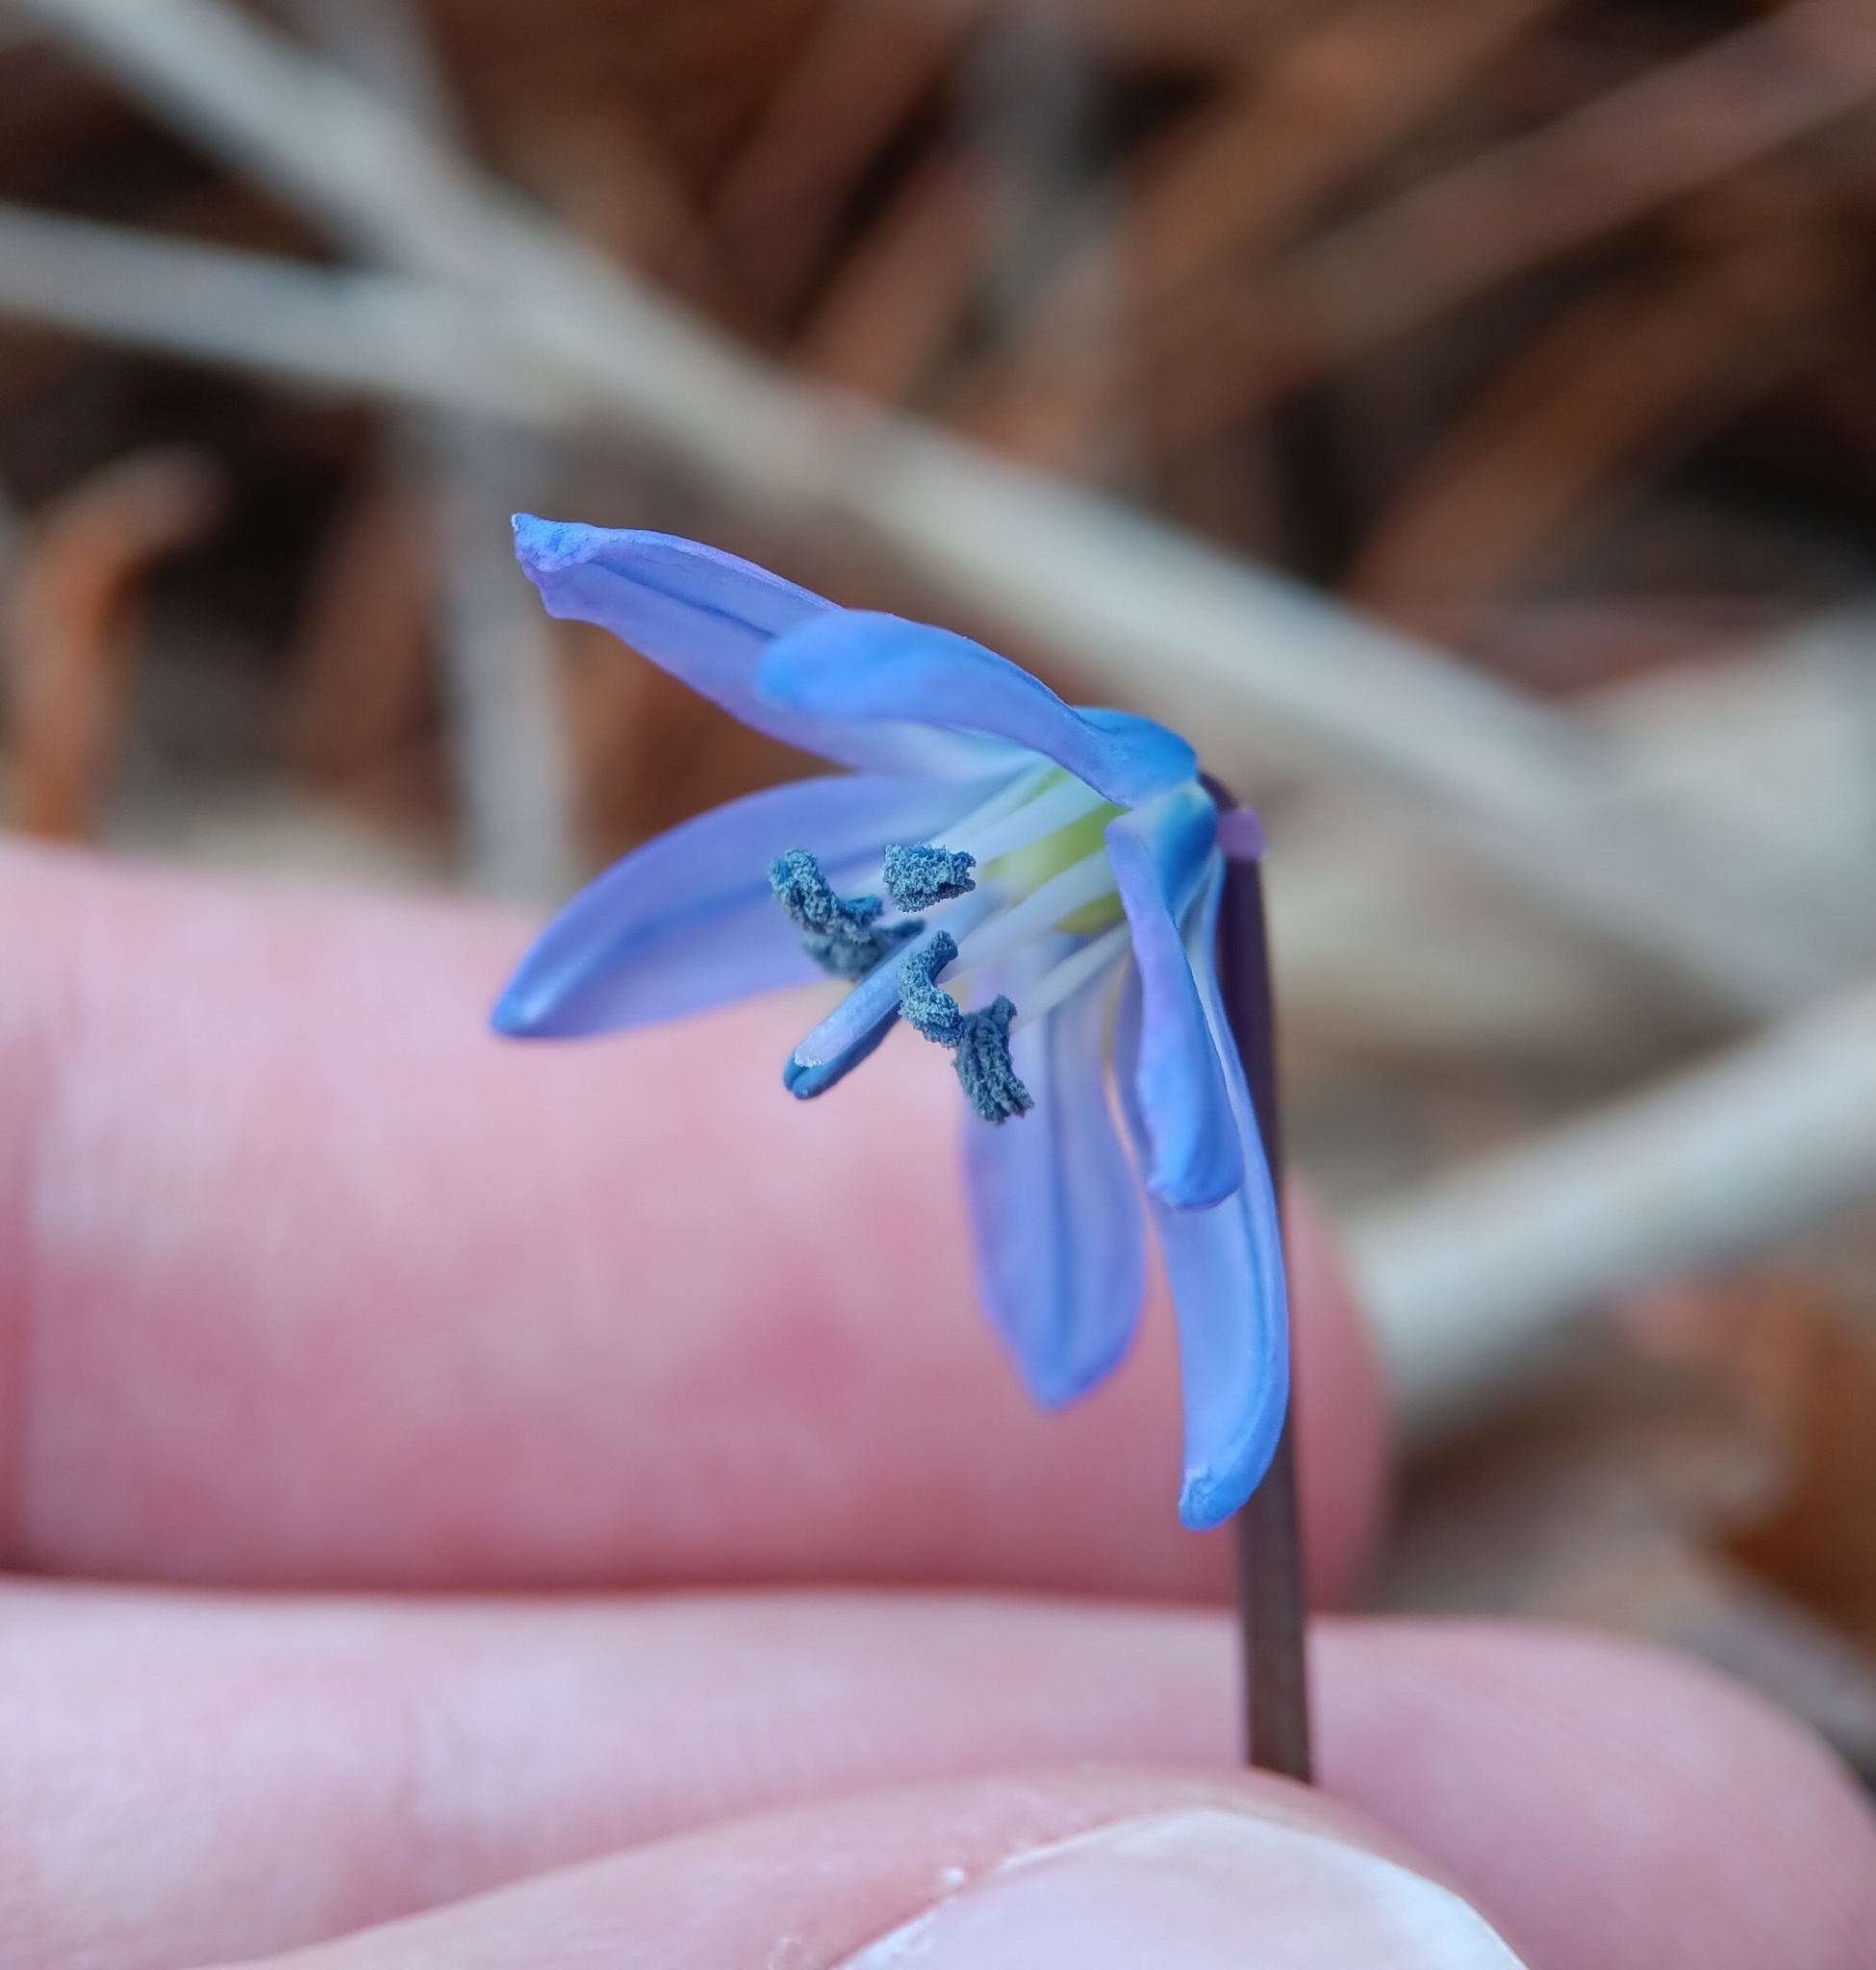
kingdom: Plantae
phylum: Tracheophyta
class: Liliopsida
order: Asparagales
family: Asparagaceae
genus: Scilla
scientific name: Scilla siberica
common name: Siberian squill
